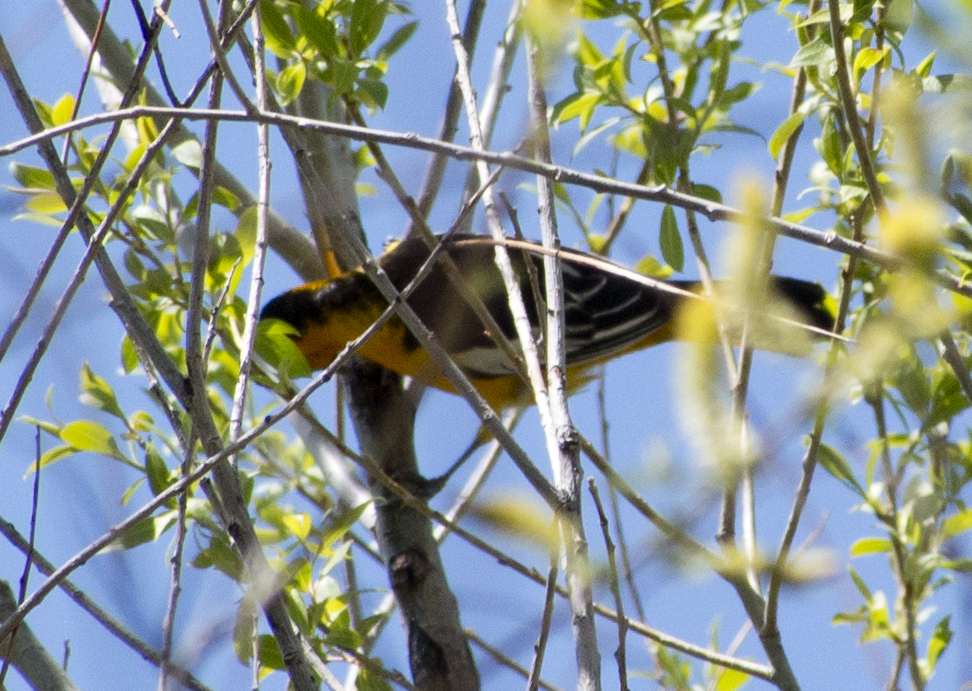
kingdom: Animalia
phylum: Chordata
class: Aves
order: Passeriformes
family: Icteridae
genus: Icterus
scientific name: Icterus bullockii
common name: Bullock's oriole
